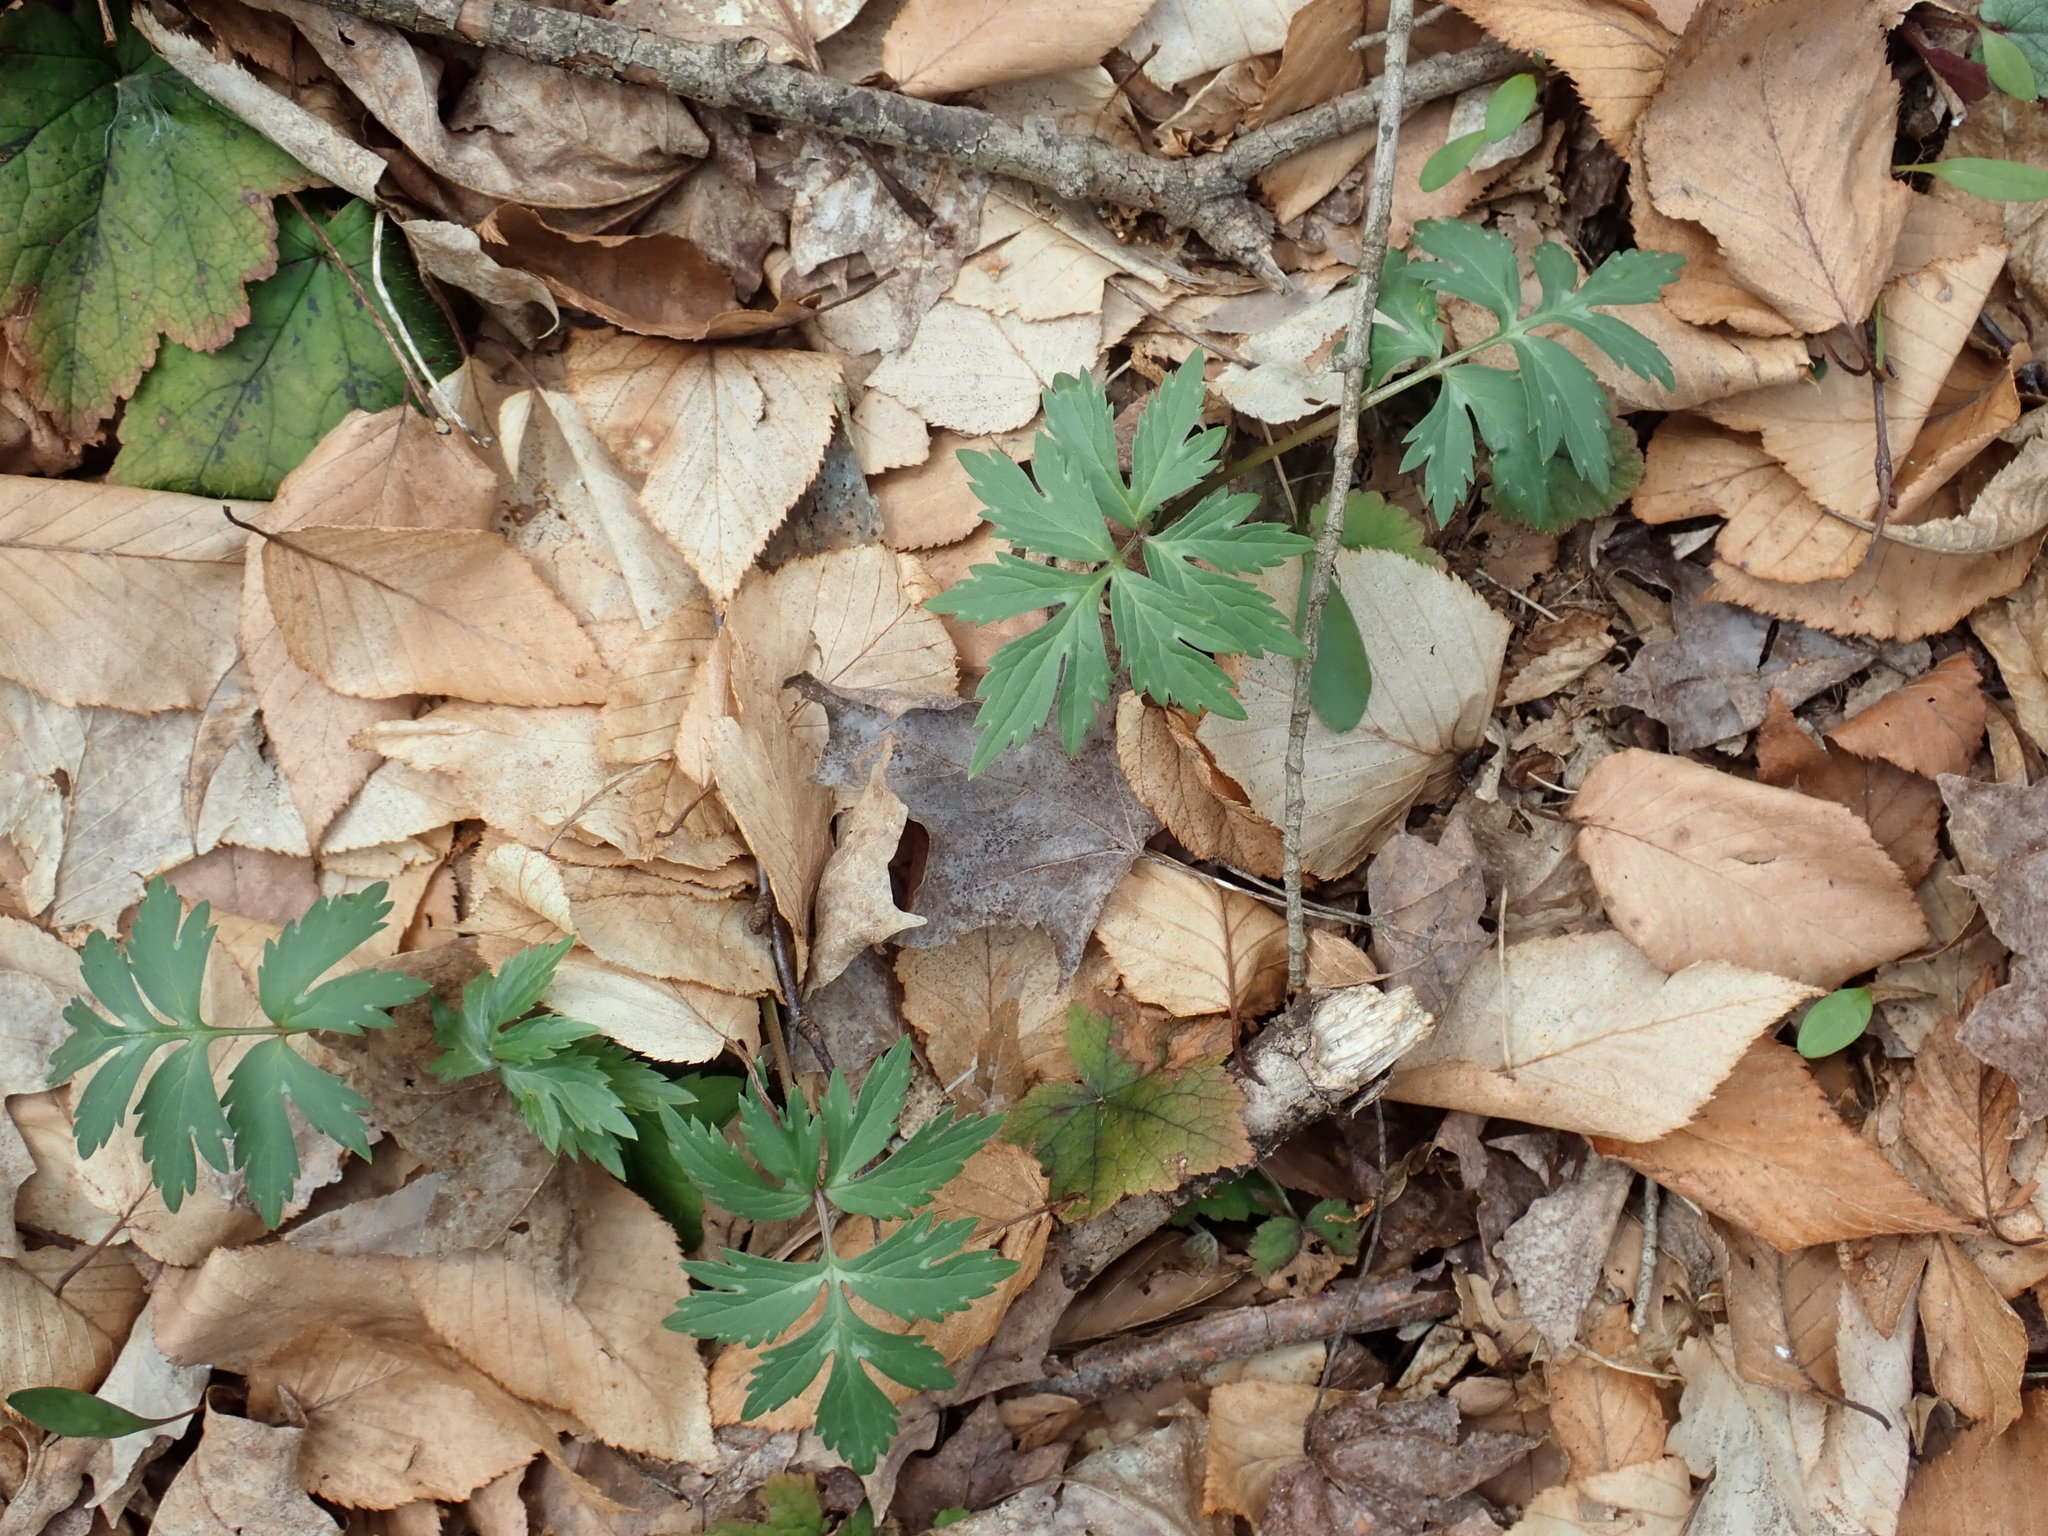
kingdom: Plantae
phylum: Tracheophyta
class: Magnoliopsida
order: Boraginales
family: Hydrophyllaceae
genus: Hydrophyllum
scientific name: Hydrophyllum virginianum
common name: Virginia waterleaf
